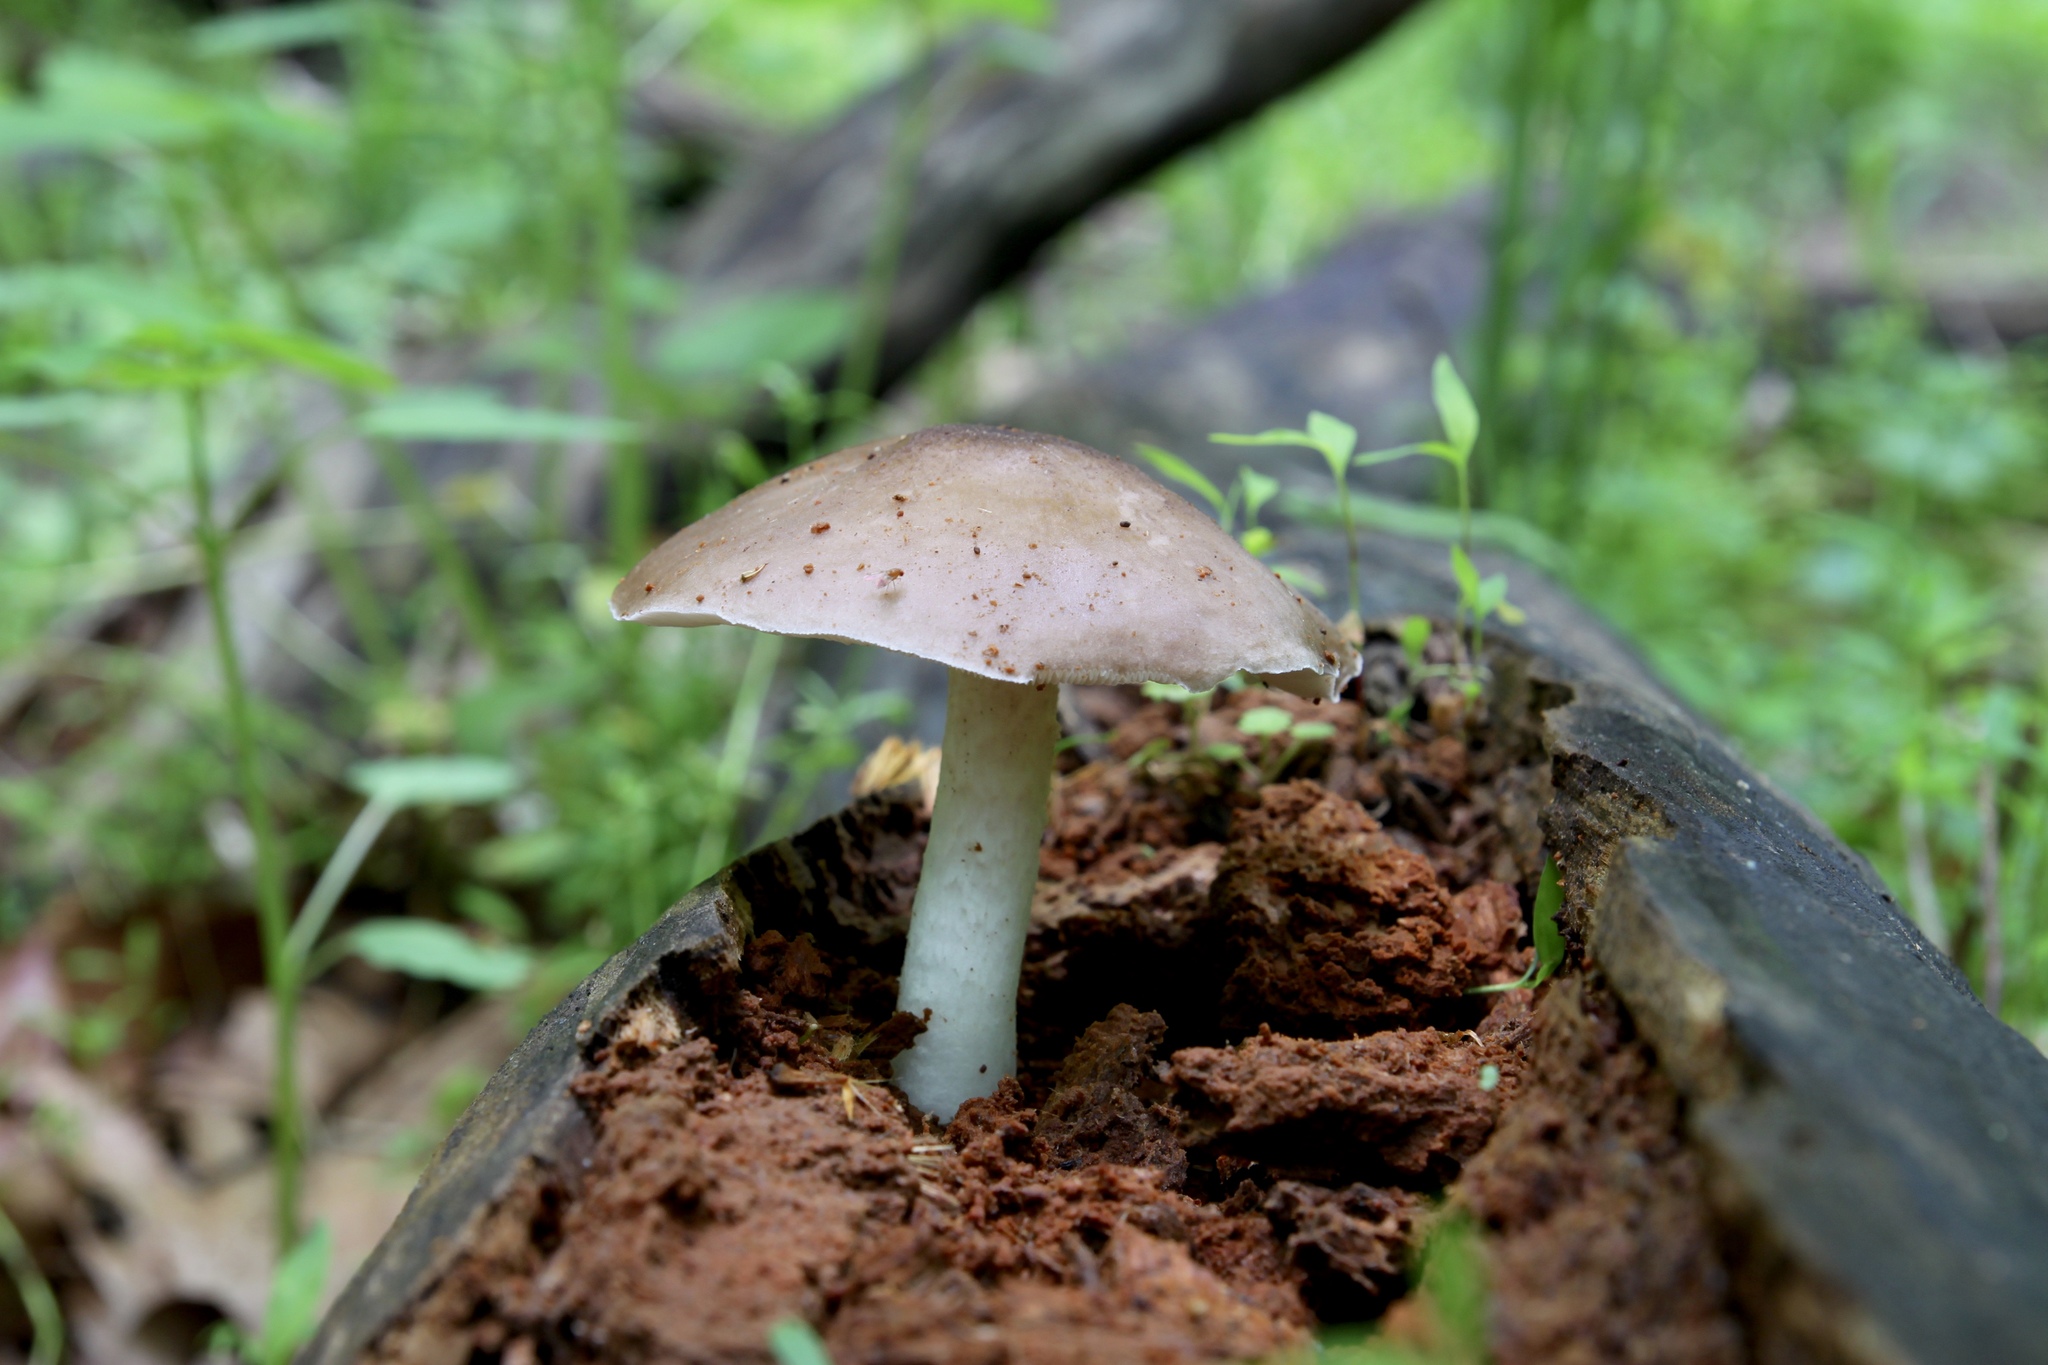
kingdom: Fungi
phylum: Basidiomycota
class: Agaricomycetes
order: Agaricales
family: Pluteaceae
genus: Pluteus
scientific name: Pluteus cervinus
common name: Deer shield
